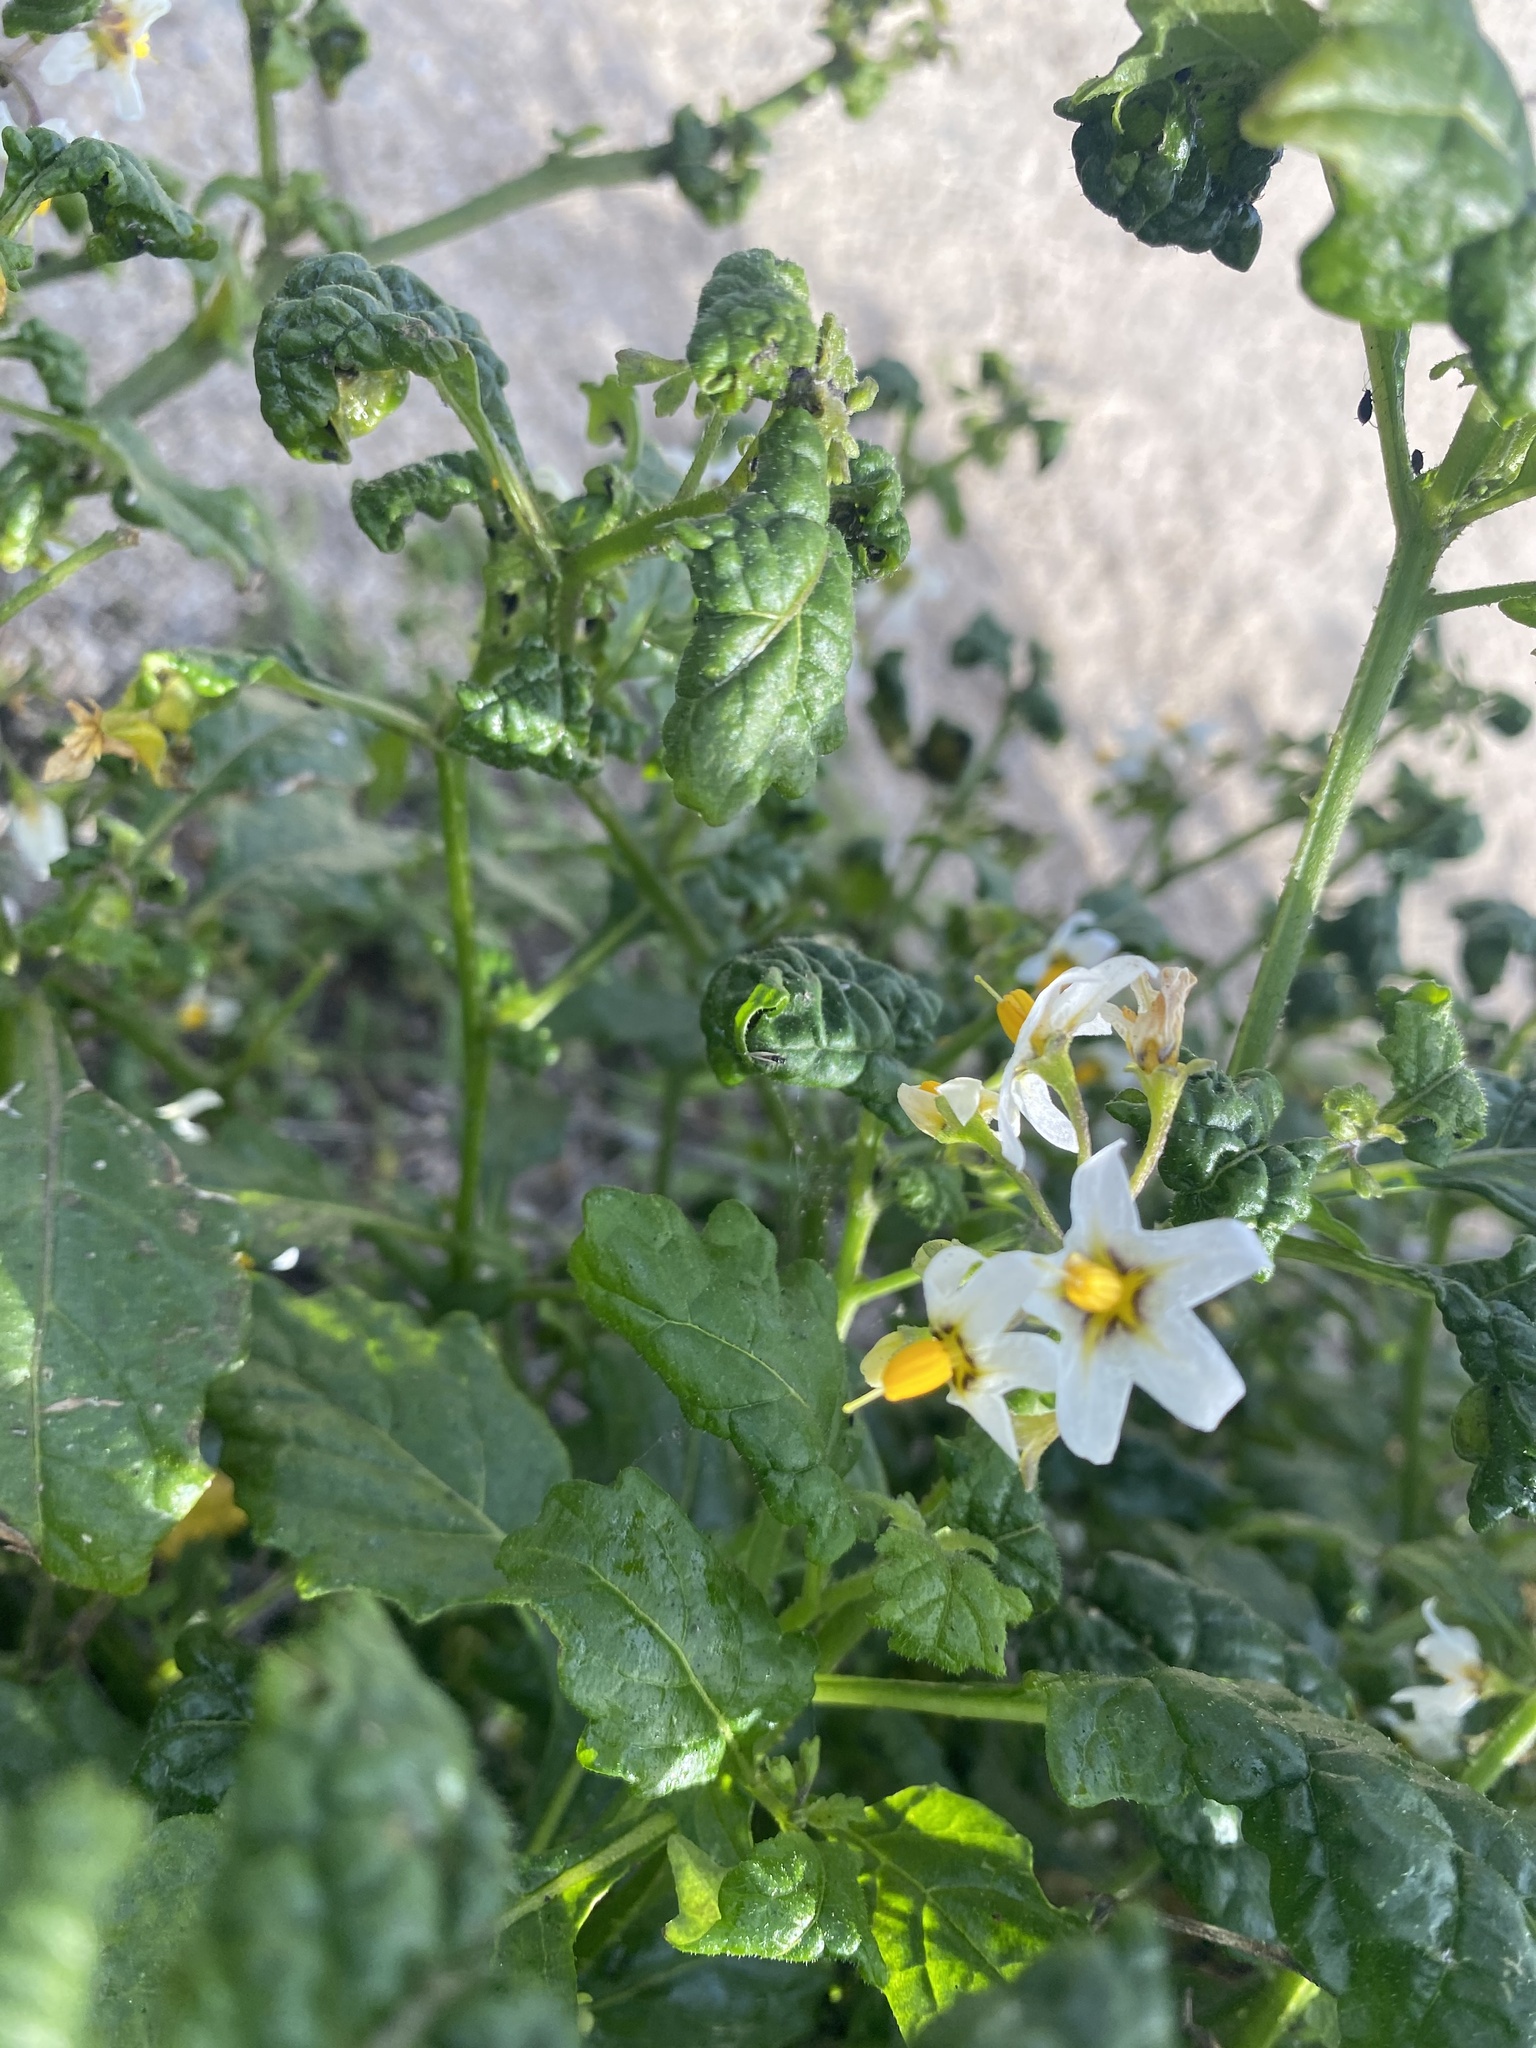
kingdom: Plantae
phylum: Tracheophyta
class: Magnoliopsida
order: Solanales
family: Solanaceae
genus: Solanum
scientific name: Solanum douglasii
